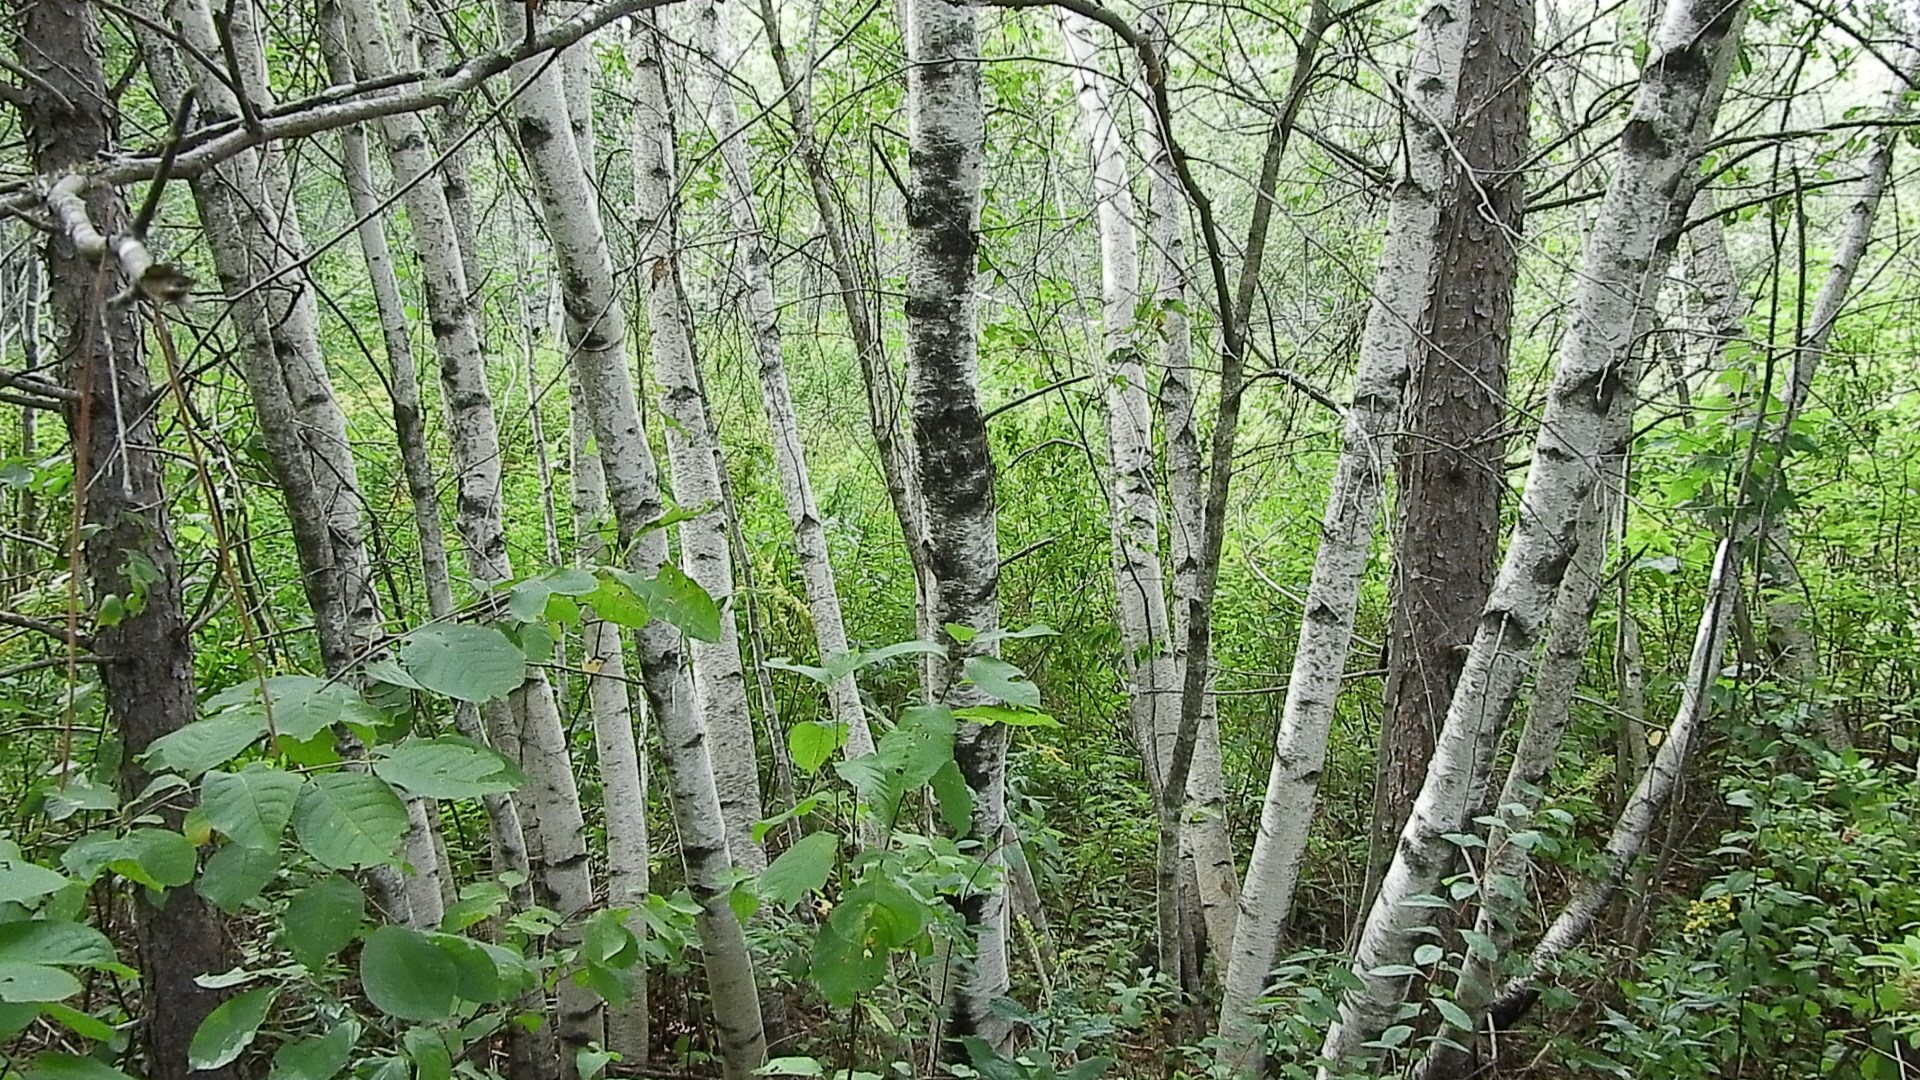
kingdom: Plantae
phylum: Tracheophyta
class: Magnoliopsida
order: Fagales
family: Betulaceae
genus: Betula
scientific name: Betula populifolia
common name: Fire birch
